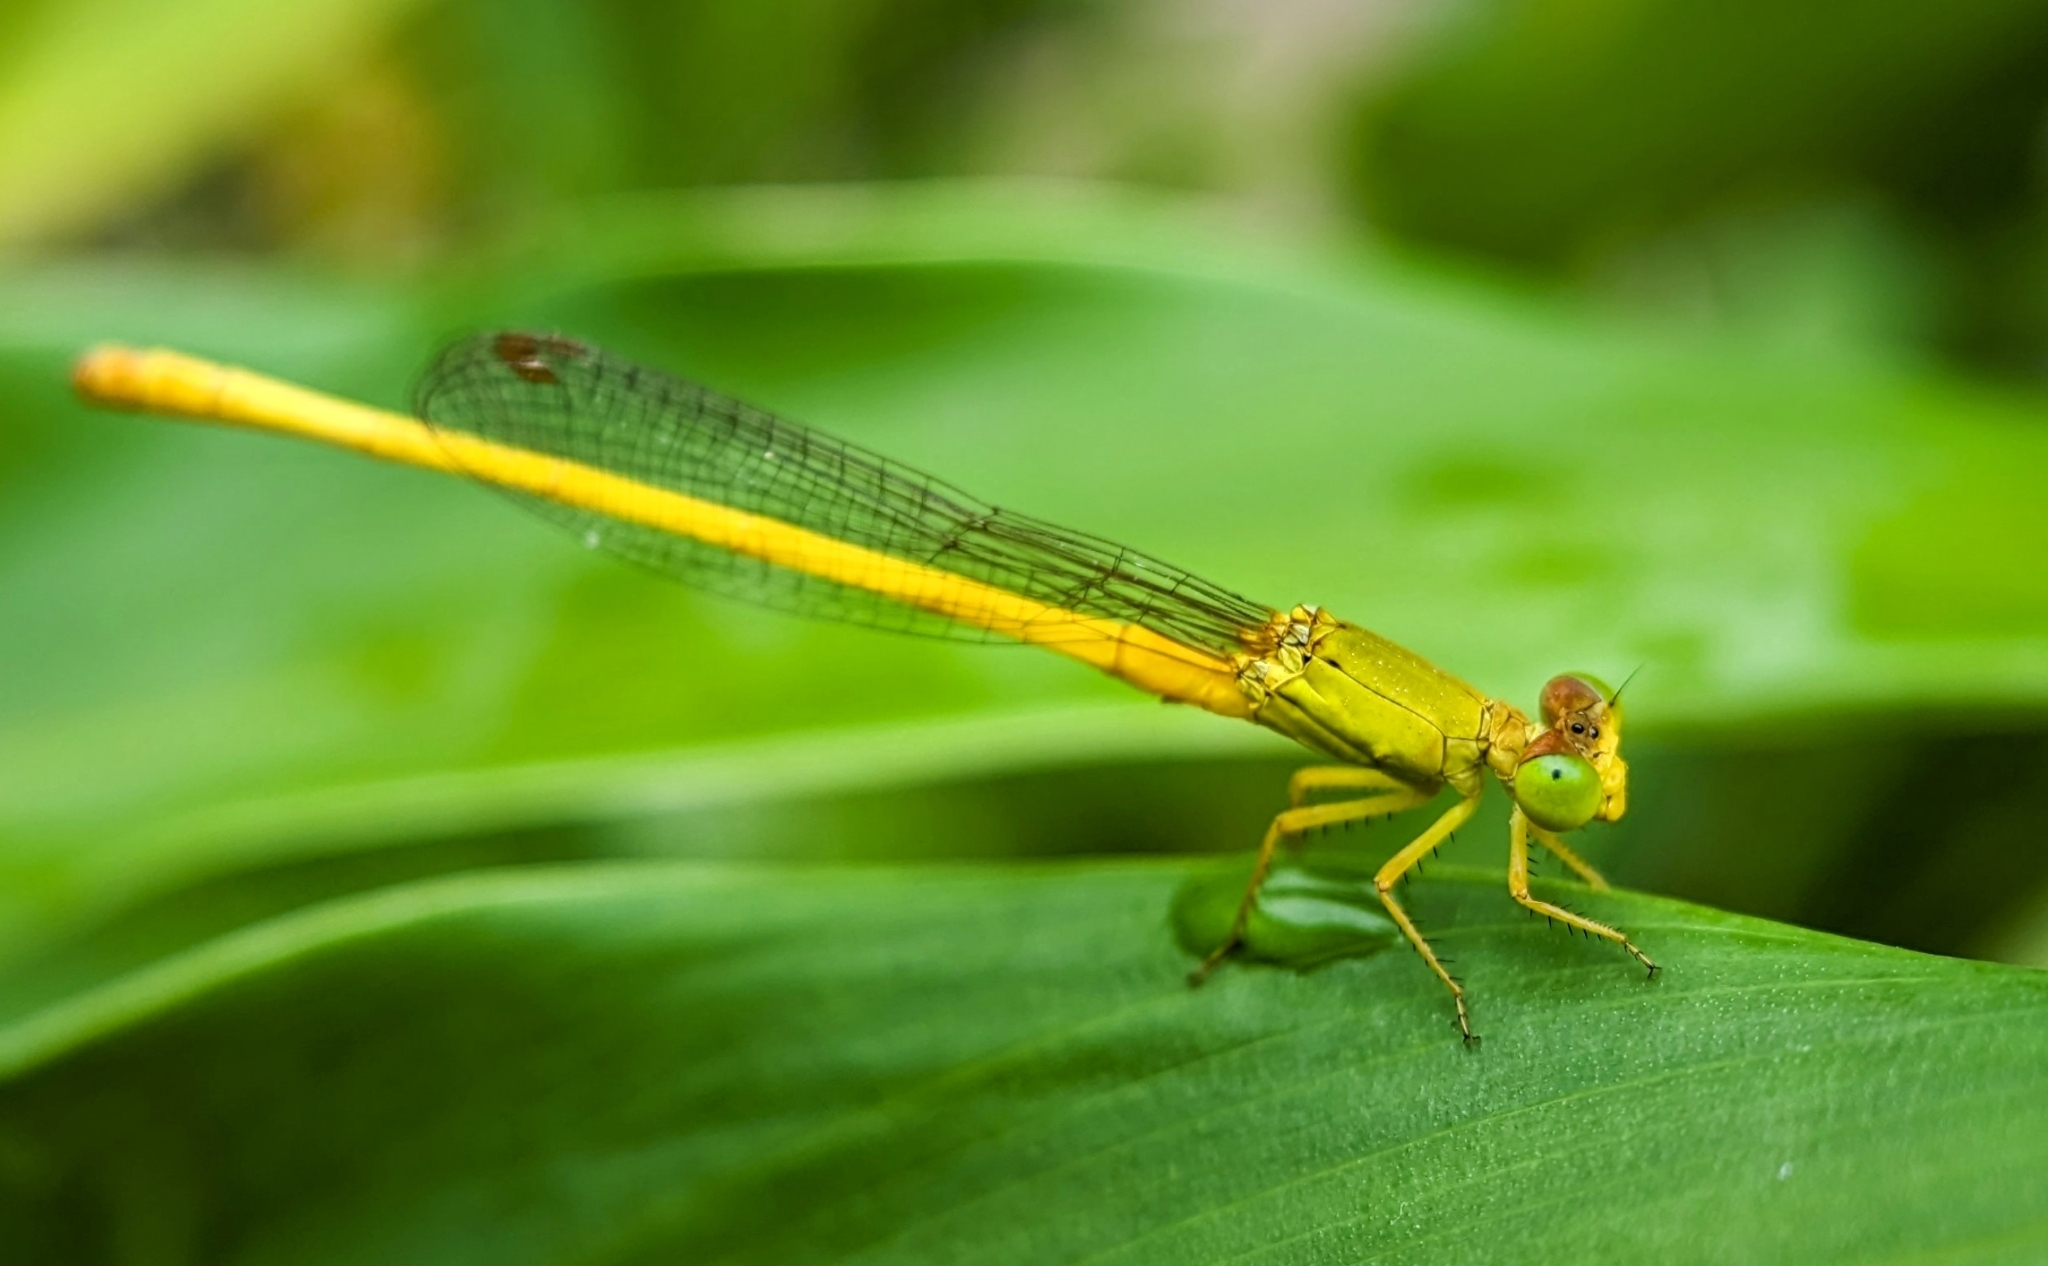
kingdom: Animalia
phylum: Arthropoda
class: Insecta
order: Odonata
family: Coenagrionidae
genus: Ceriagrion
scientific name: Ceriagrion coromandelianum
